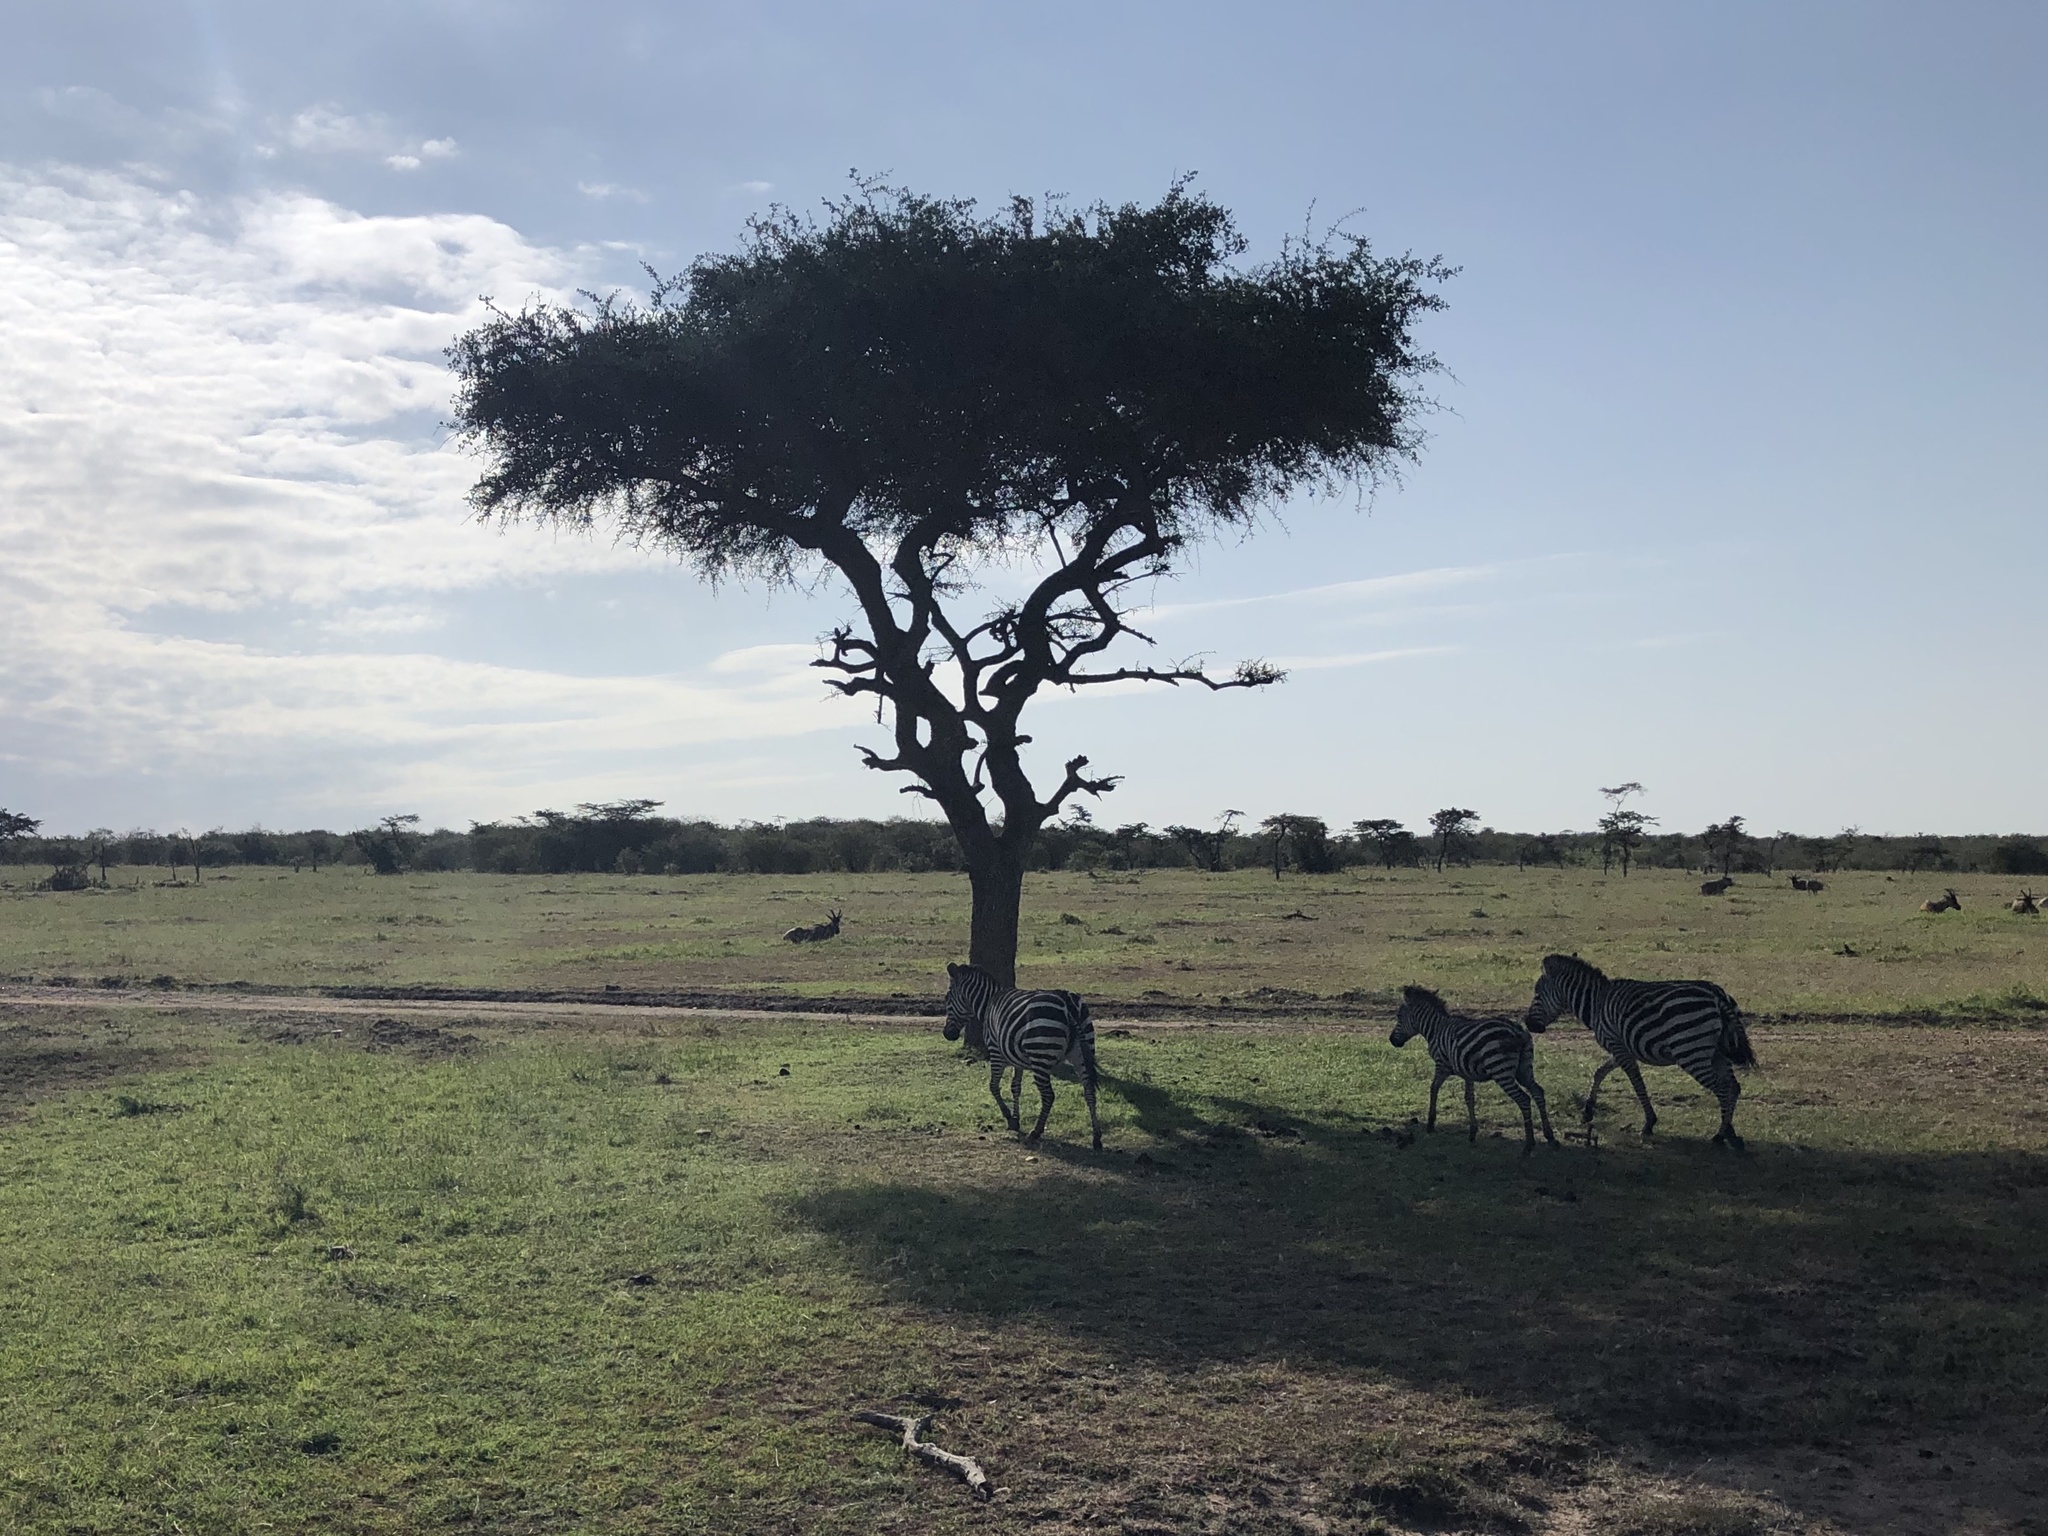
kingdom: Animalia
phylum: Chordata
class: Mammalia
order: Perissodactyla
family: Equidae
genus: Equus
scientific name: Equus quagga
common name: Plains zebra
